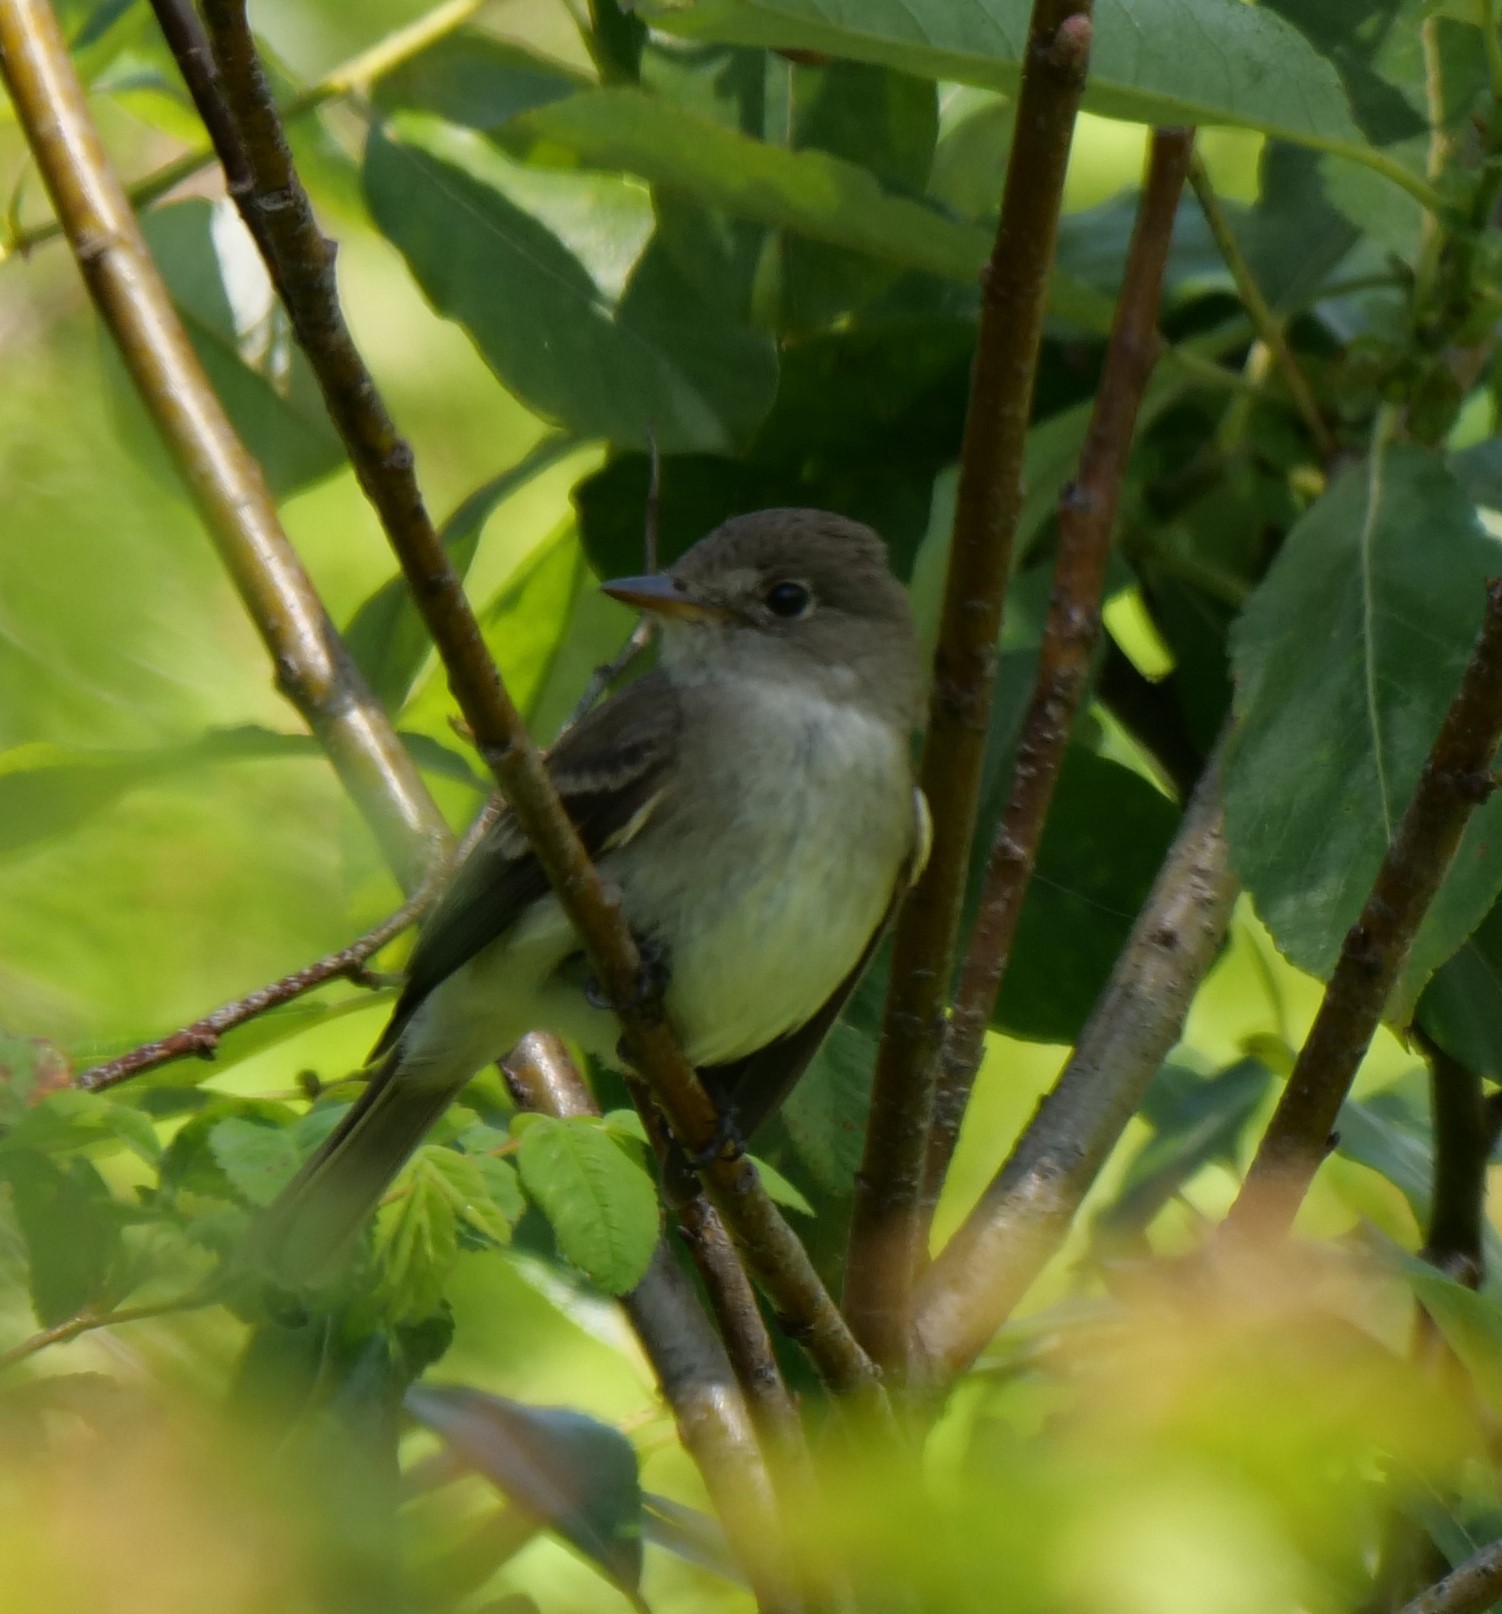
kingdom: Animalia
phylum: Chordata
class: Aves
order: Passeriformes
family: Tyrannidae
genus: Empidonax
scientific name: Empidonax traillii
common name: Willow flycatcher
